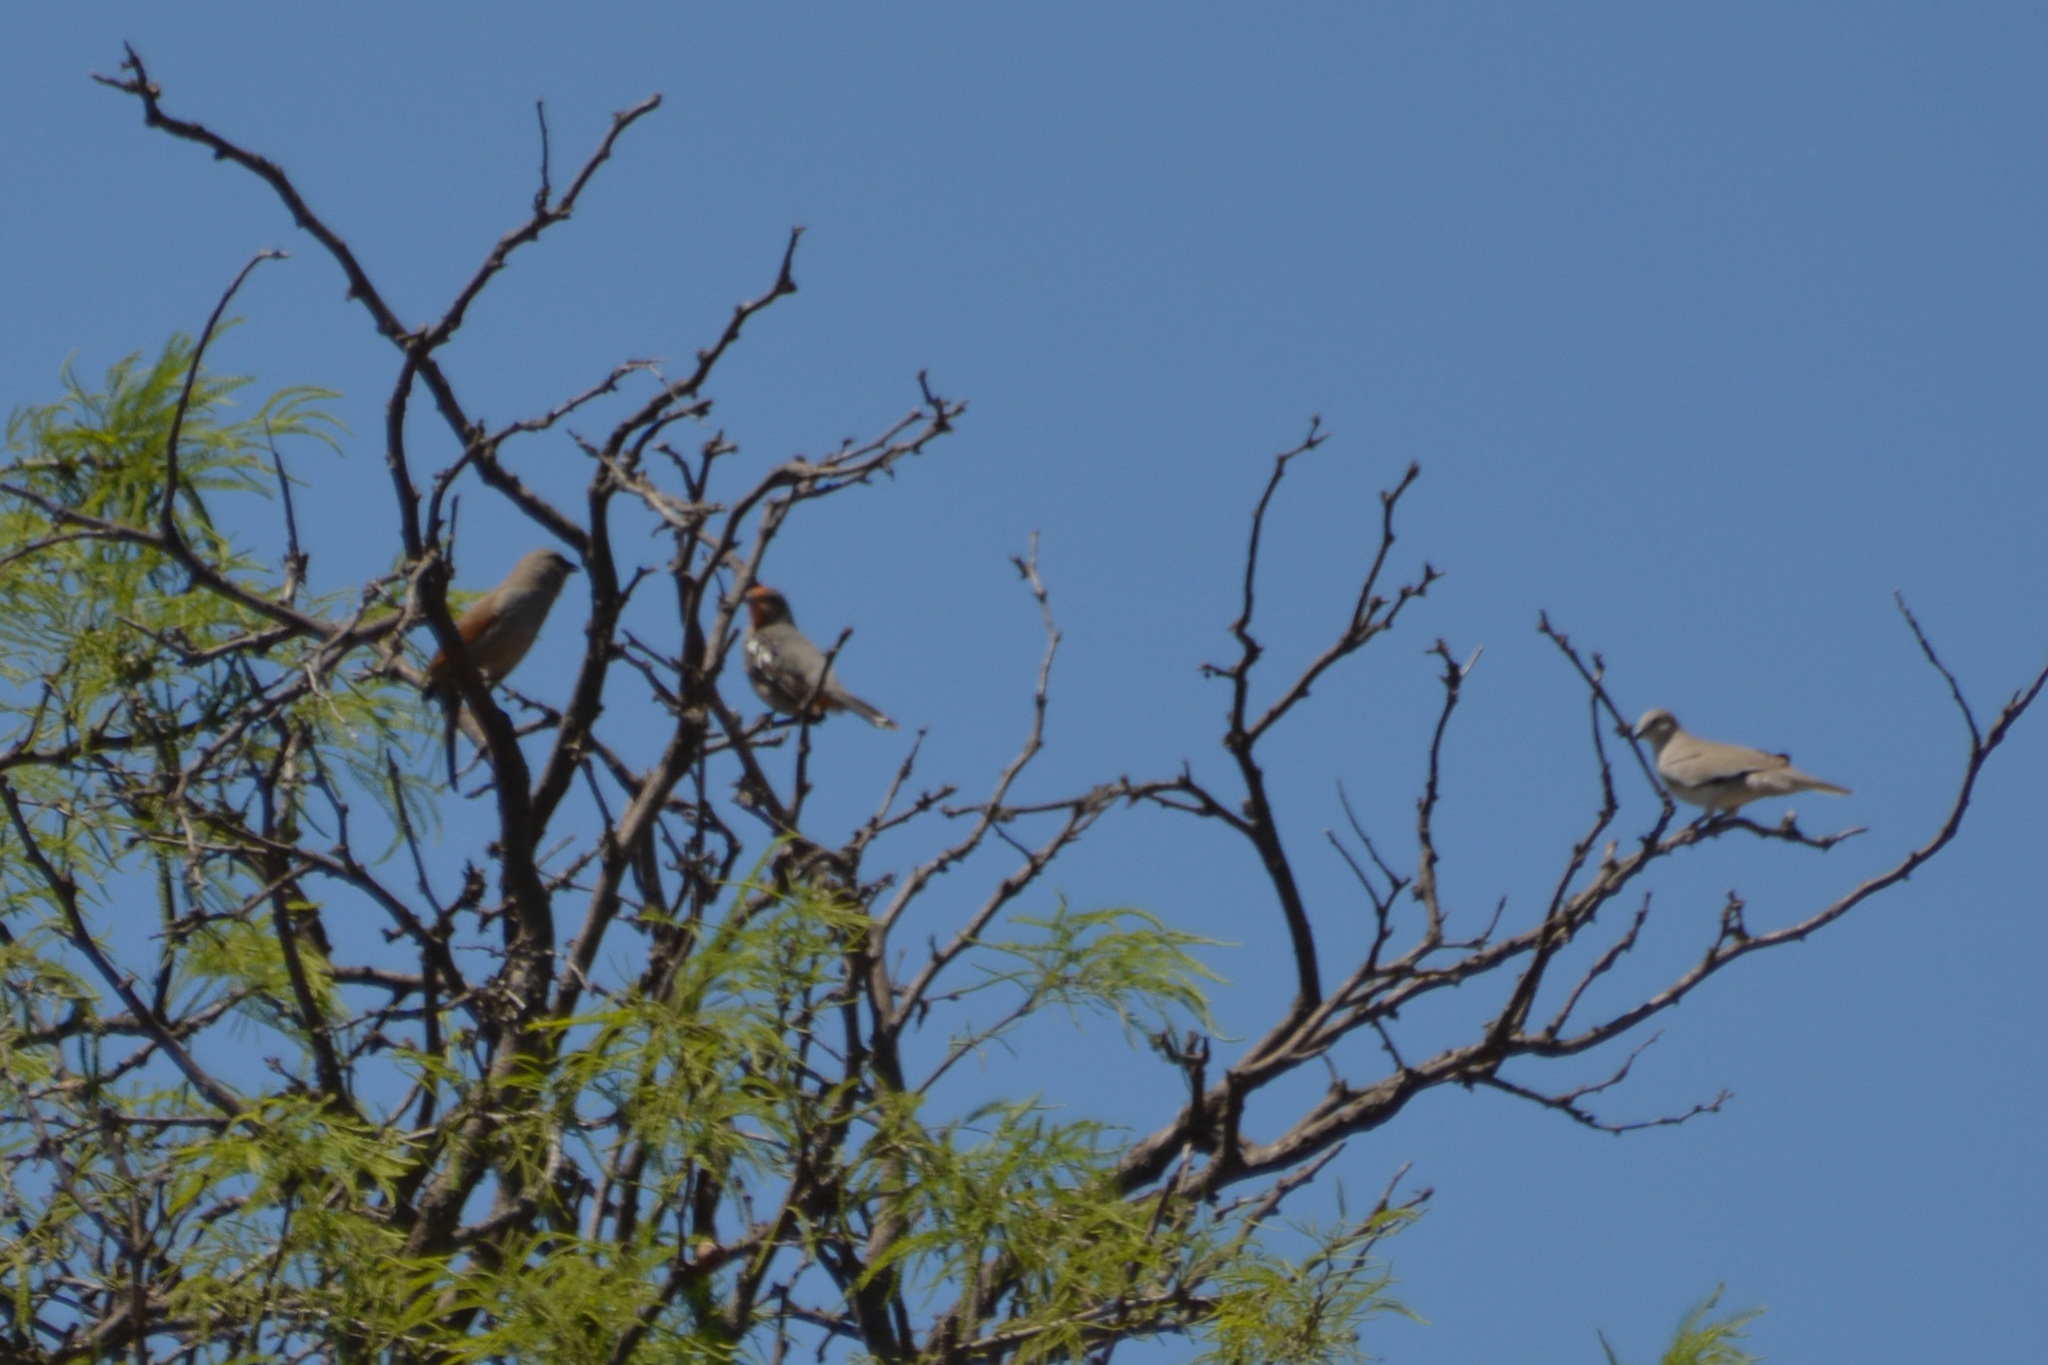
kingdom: Animalia
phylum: Chordata
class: Aves
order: Passeriformes
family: Cotingidae
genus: Phytotoma
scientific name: Phytotoma rutila
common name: White-tipped plantcutter
